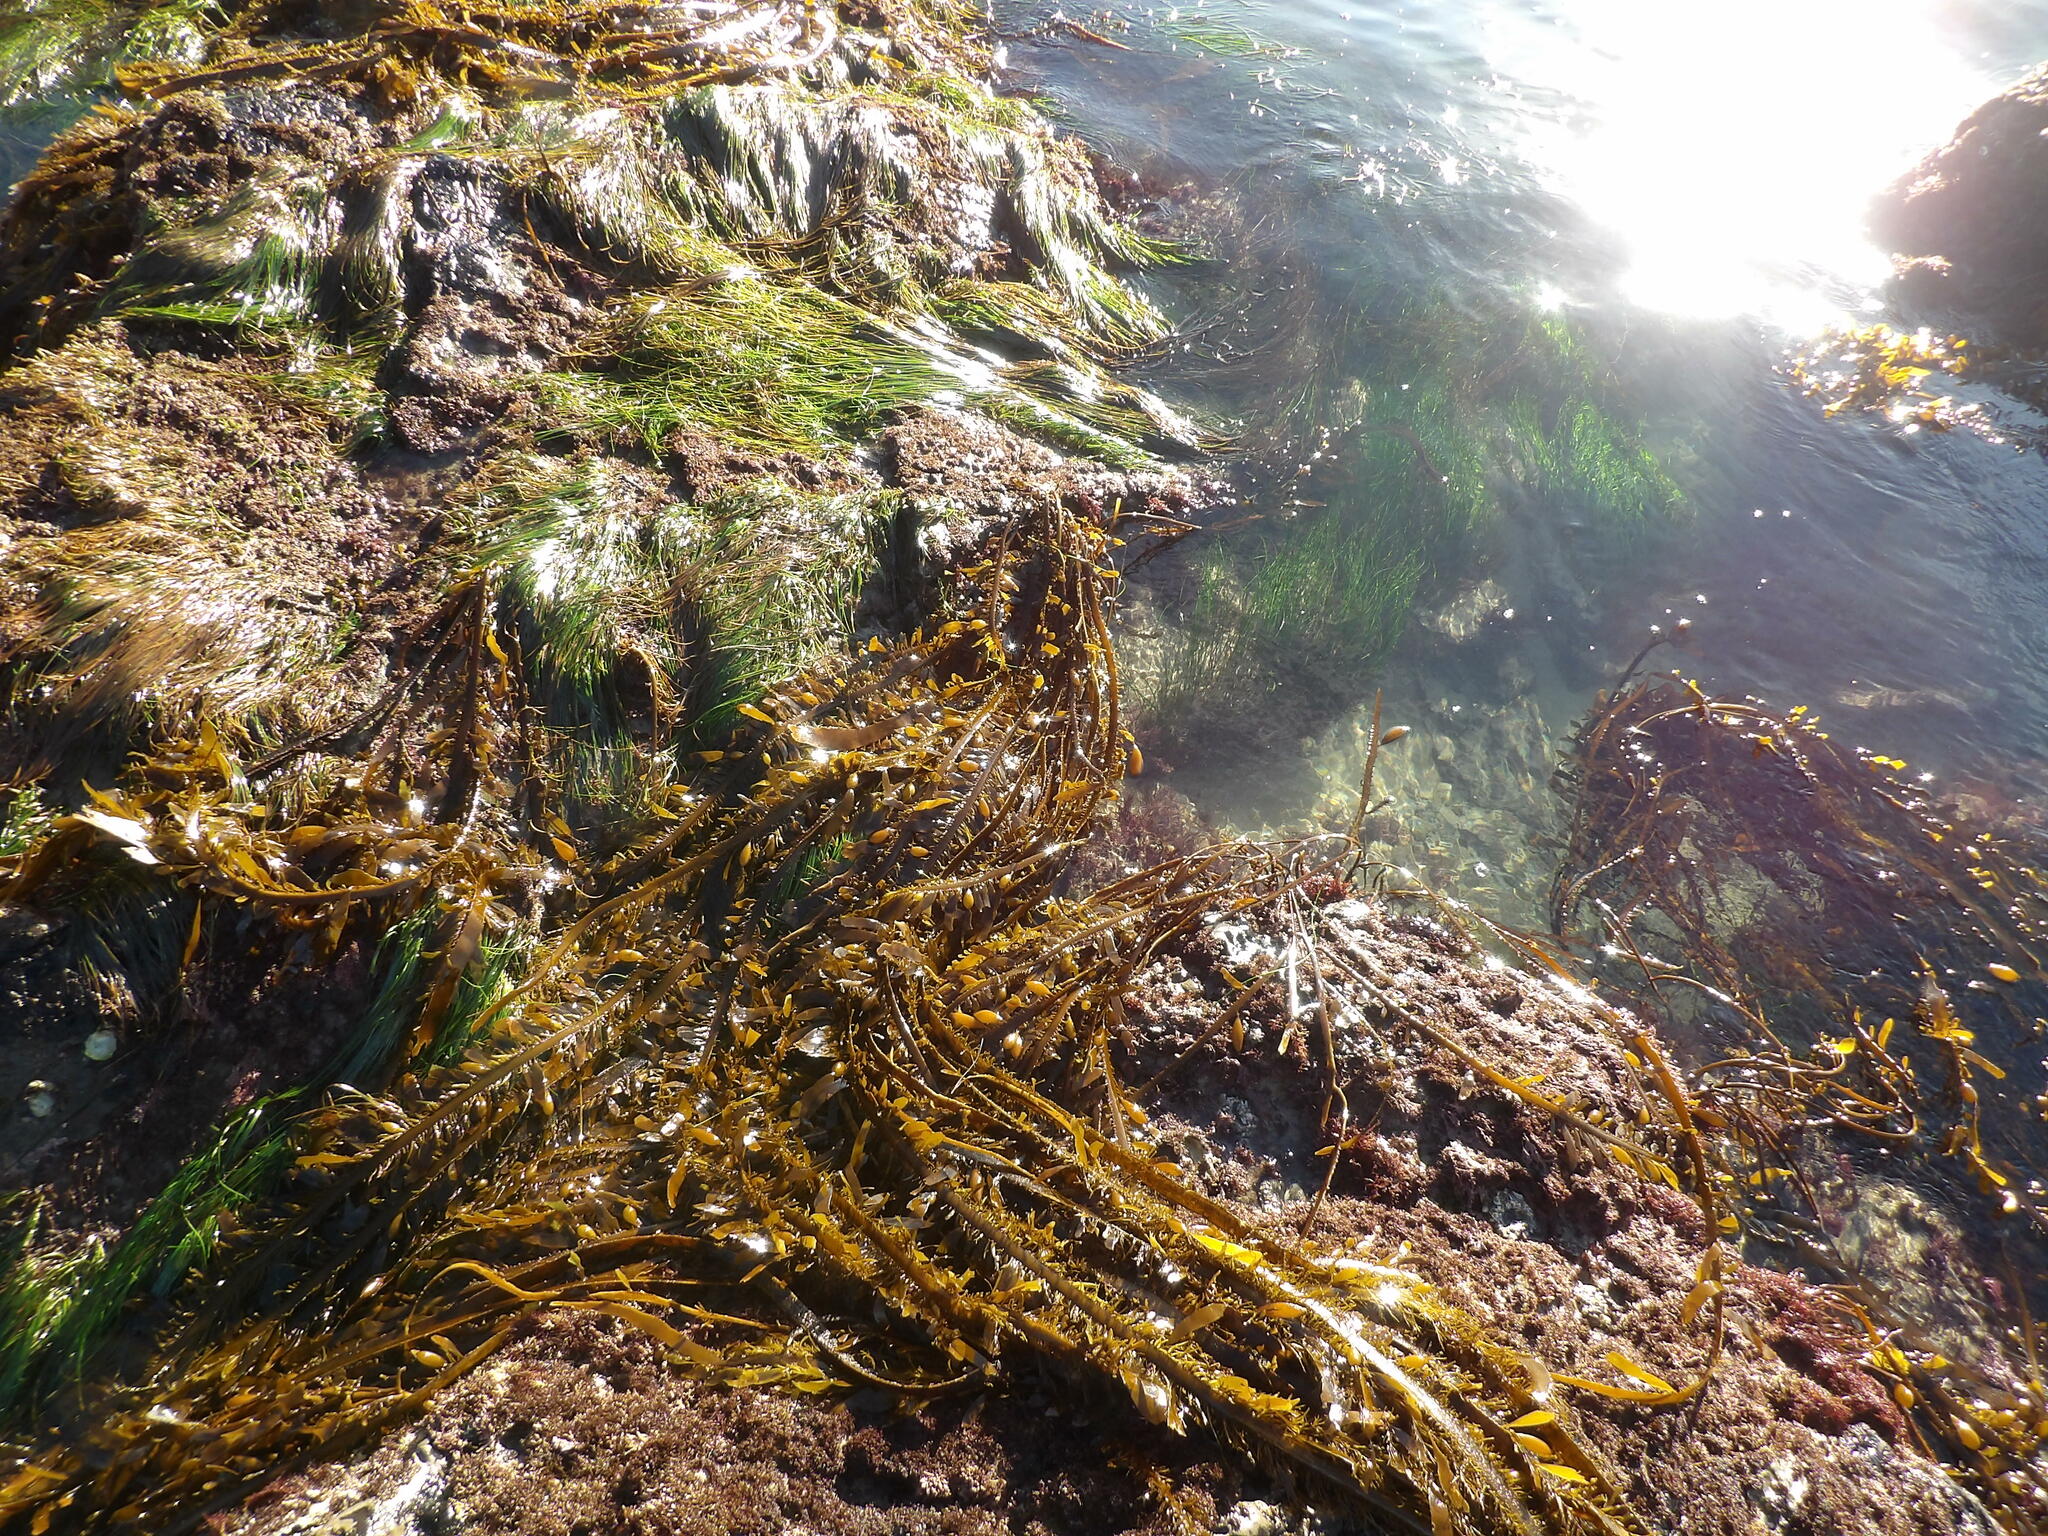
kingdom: Chromista
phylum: Ochrophyta
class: Phaeophyceae
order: Laminariales
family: Lessoniaceae
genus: Egregia
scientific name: Egregia menziesii
